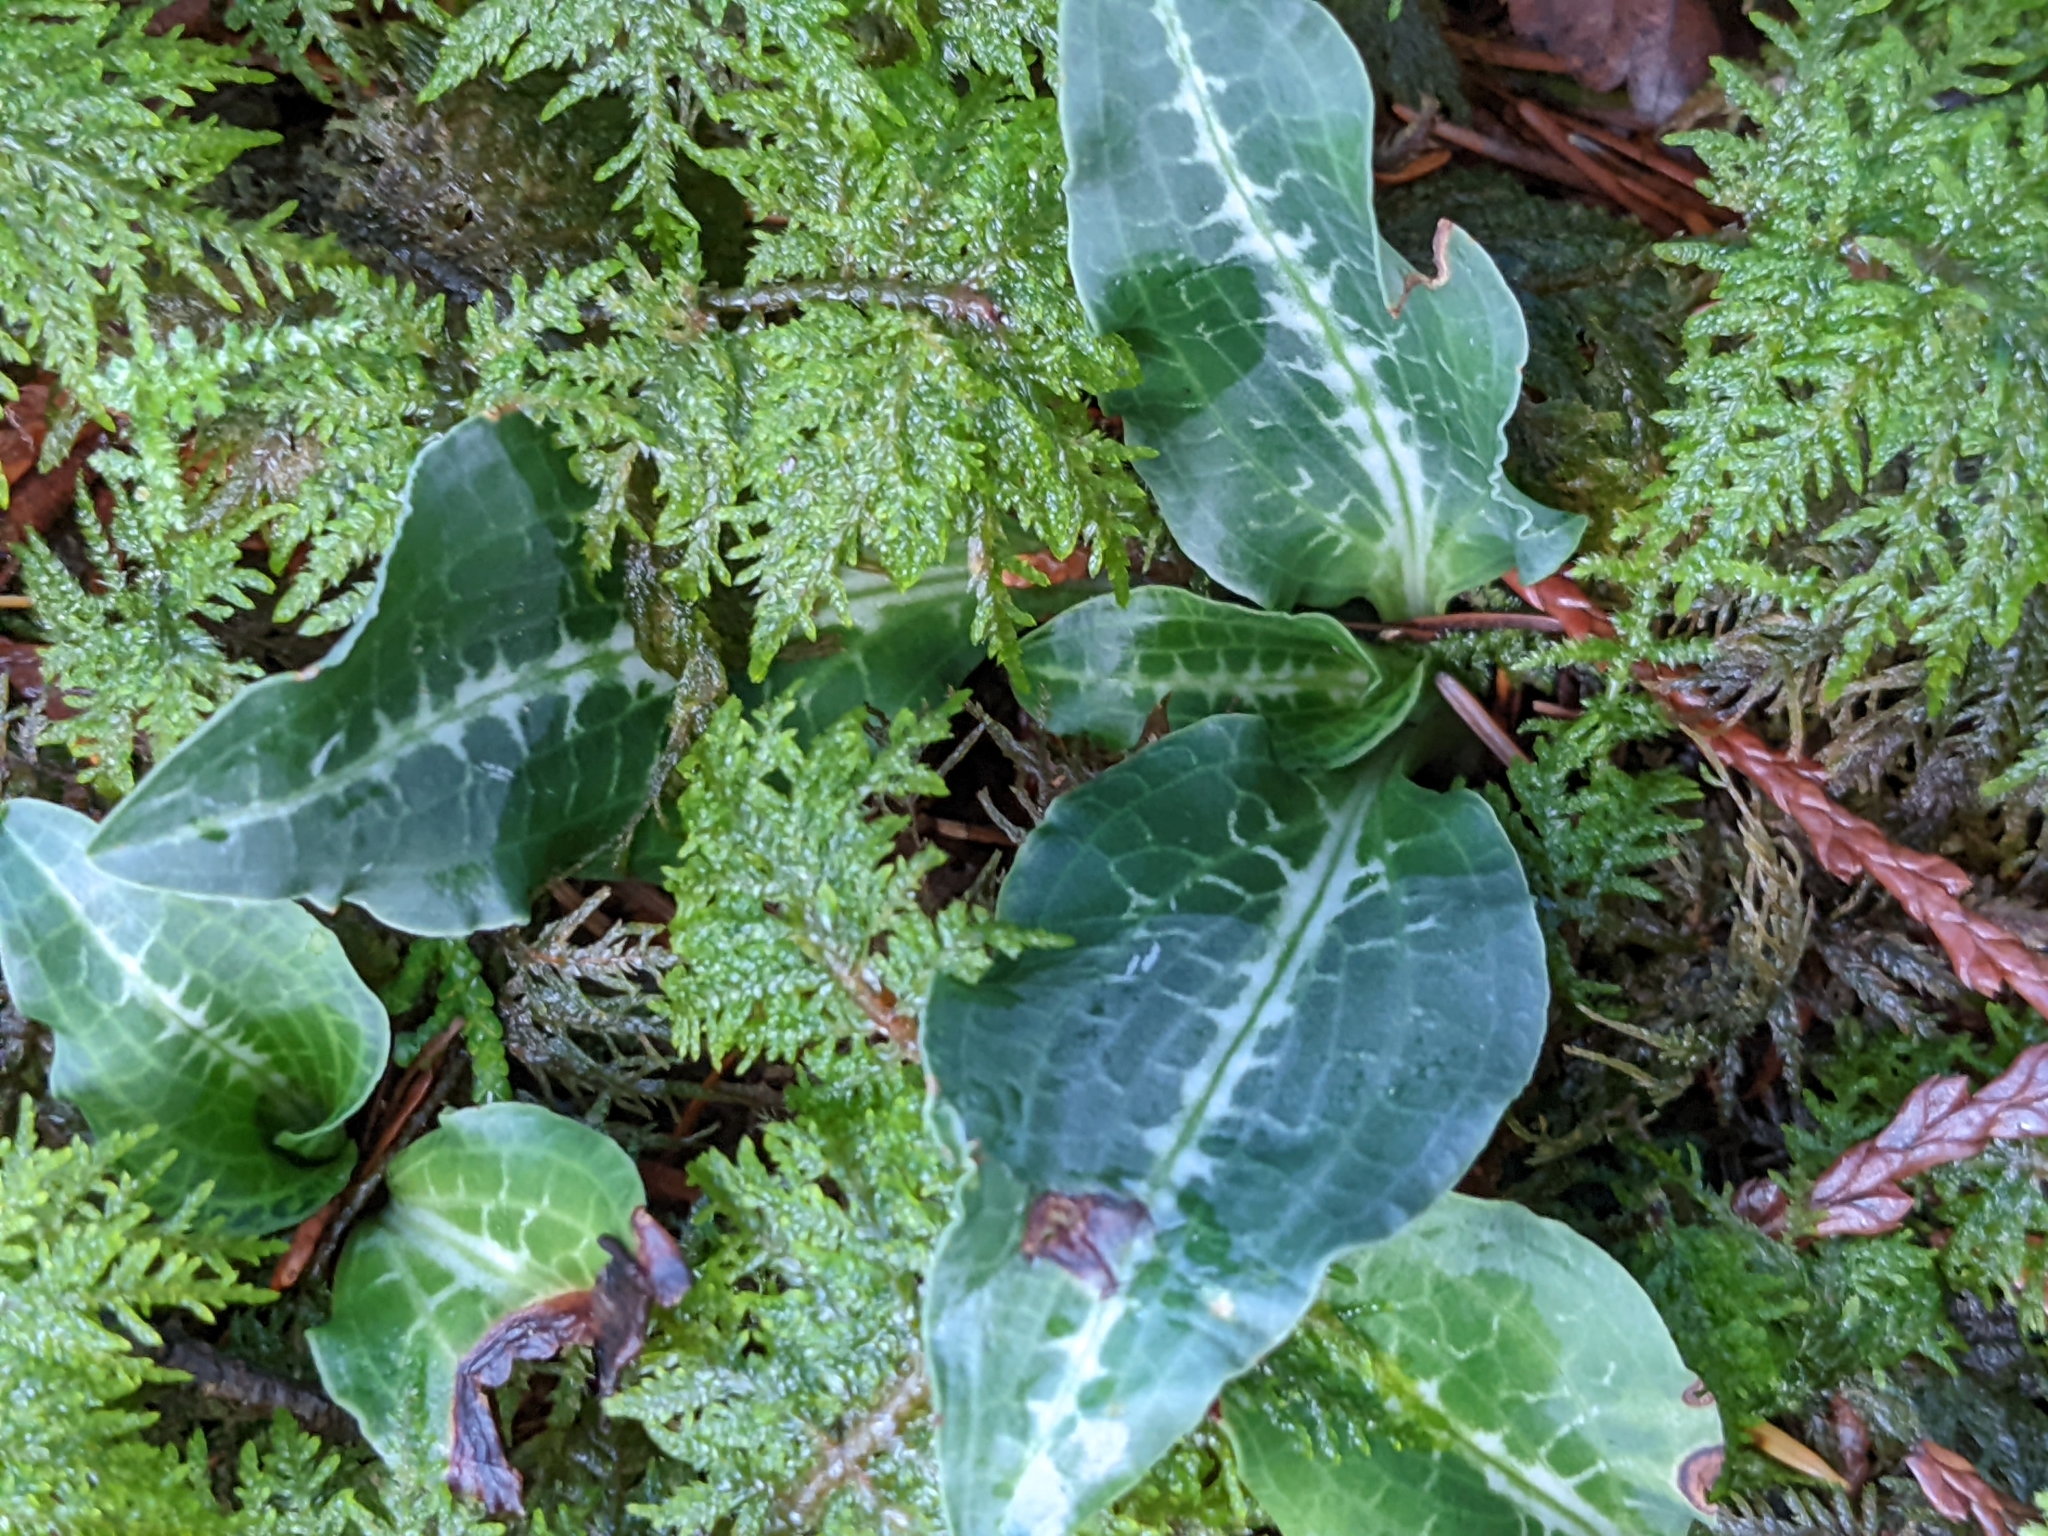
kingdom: Plantae
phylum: Tracheophyta
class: Liliopsida
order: Asparagales
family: Orchidaceae
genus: Goodyera
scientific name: Goodyera oblongifolia
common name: Giant rattlesnake-plantain
